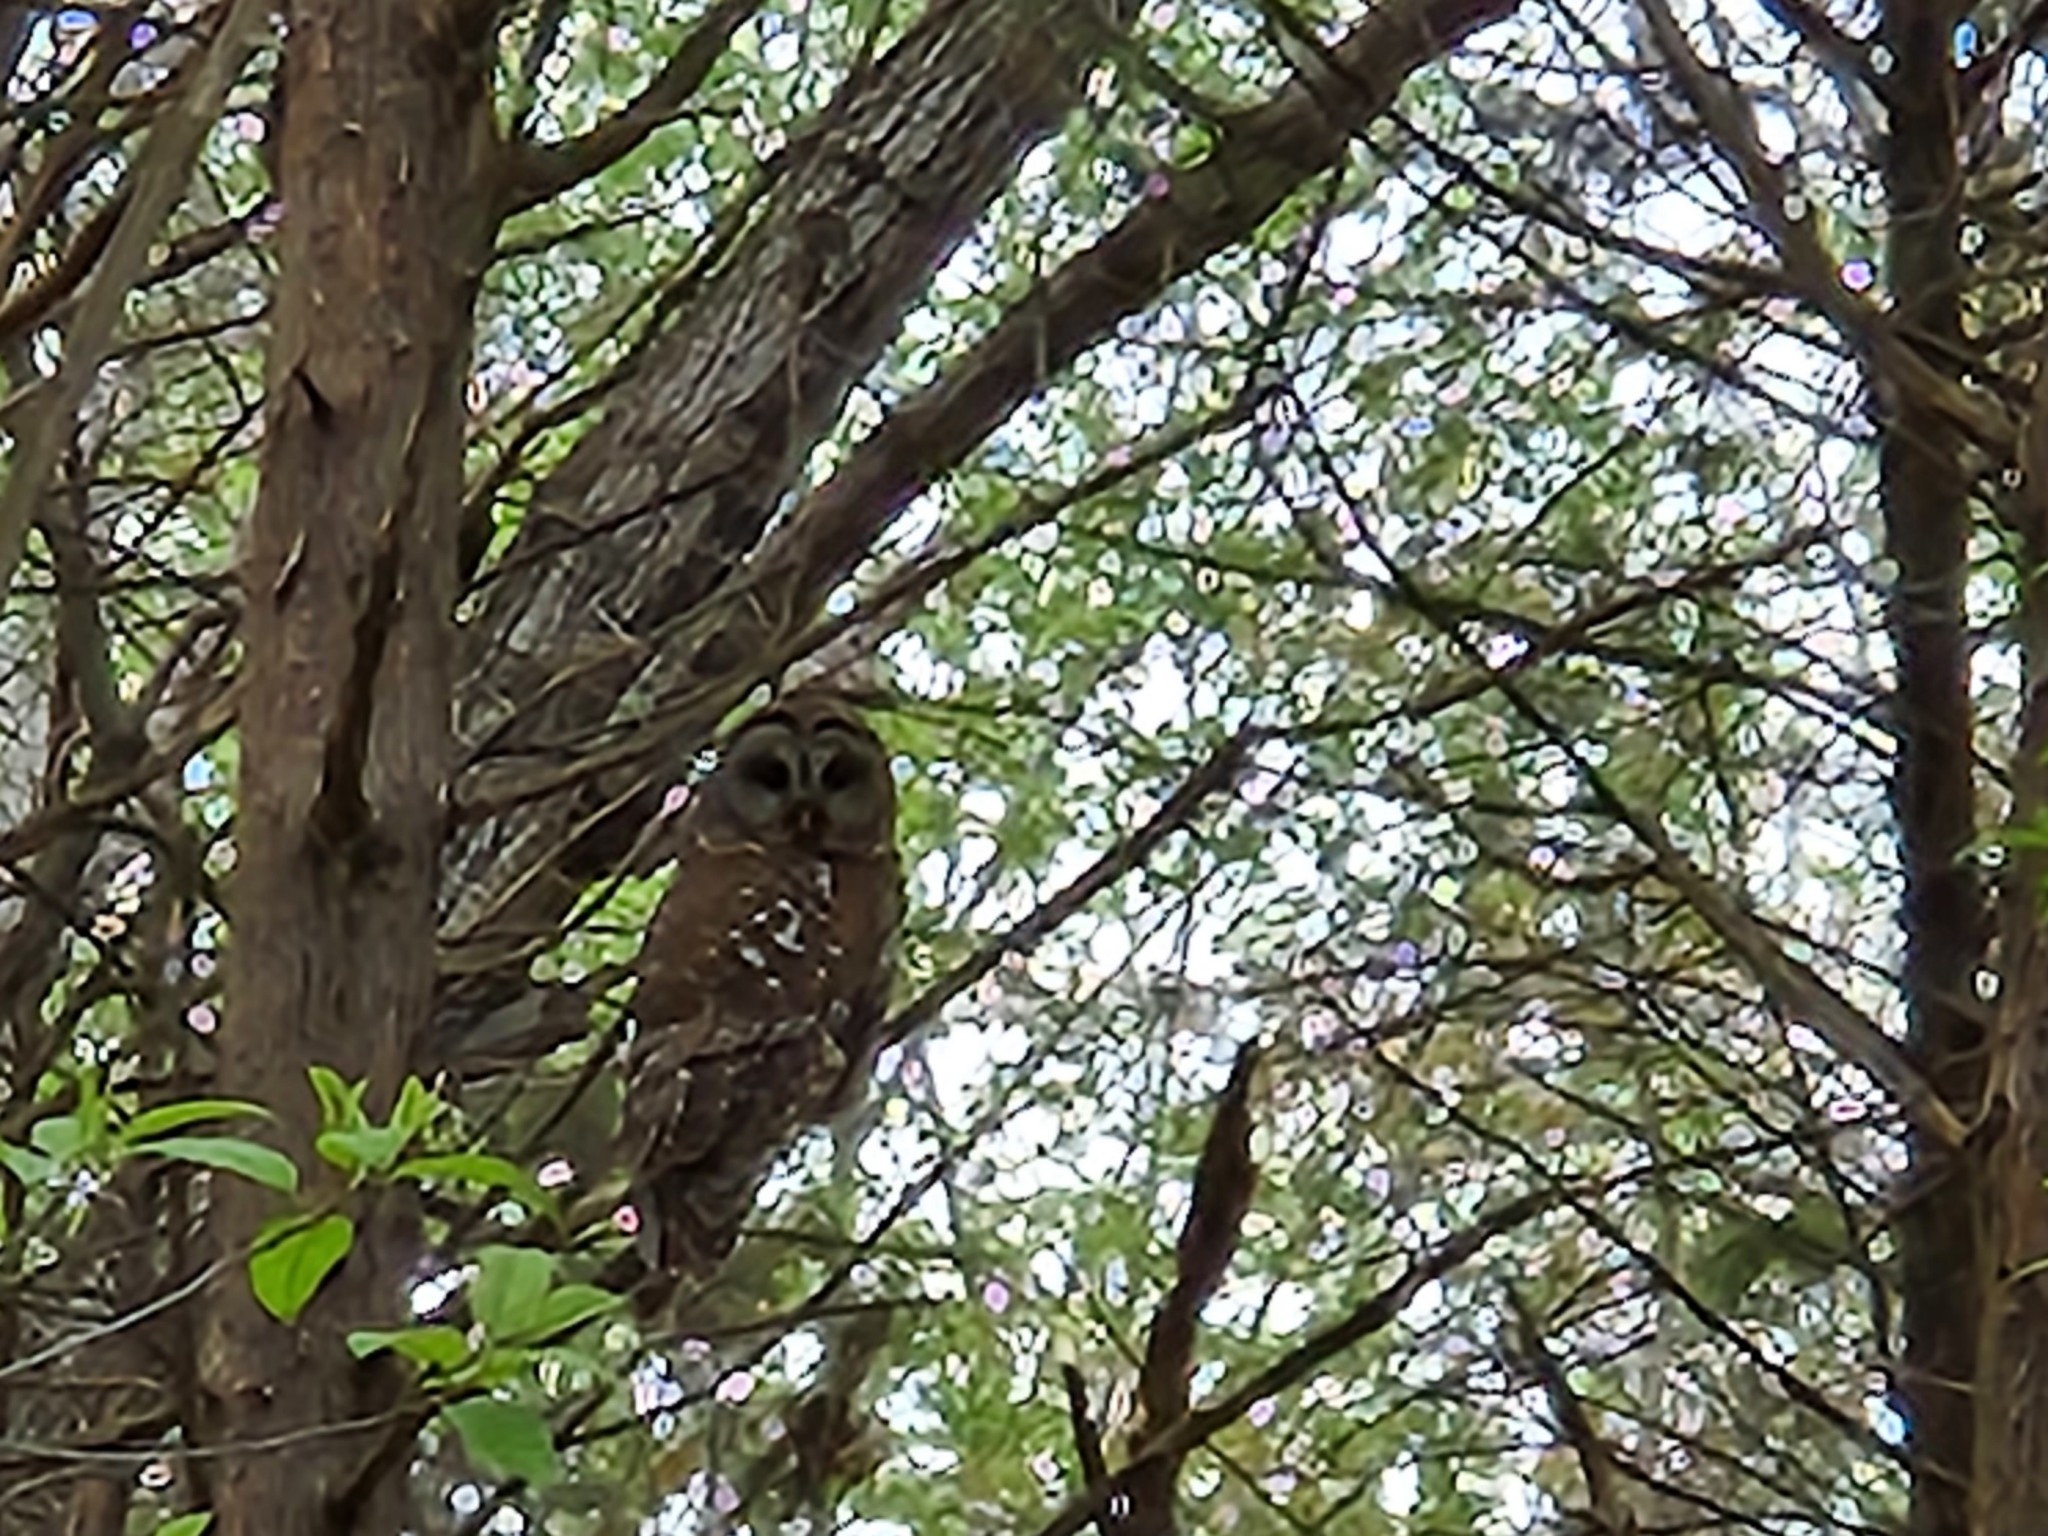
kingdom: Animalia
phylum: Chordata
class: Aves
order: Strigiformes
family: Strigidae
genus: Strix
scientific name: Strix varia
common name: Barred owl
